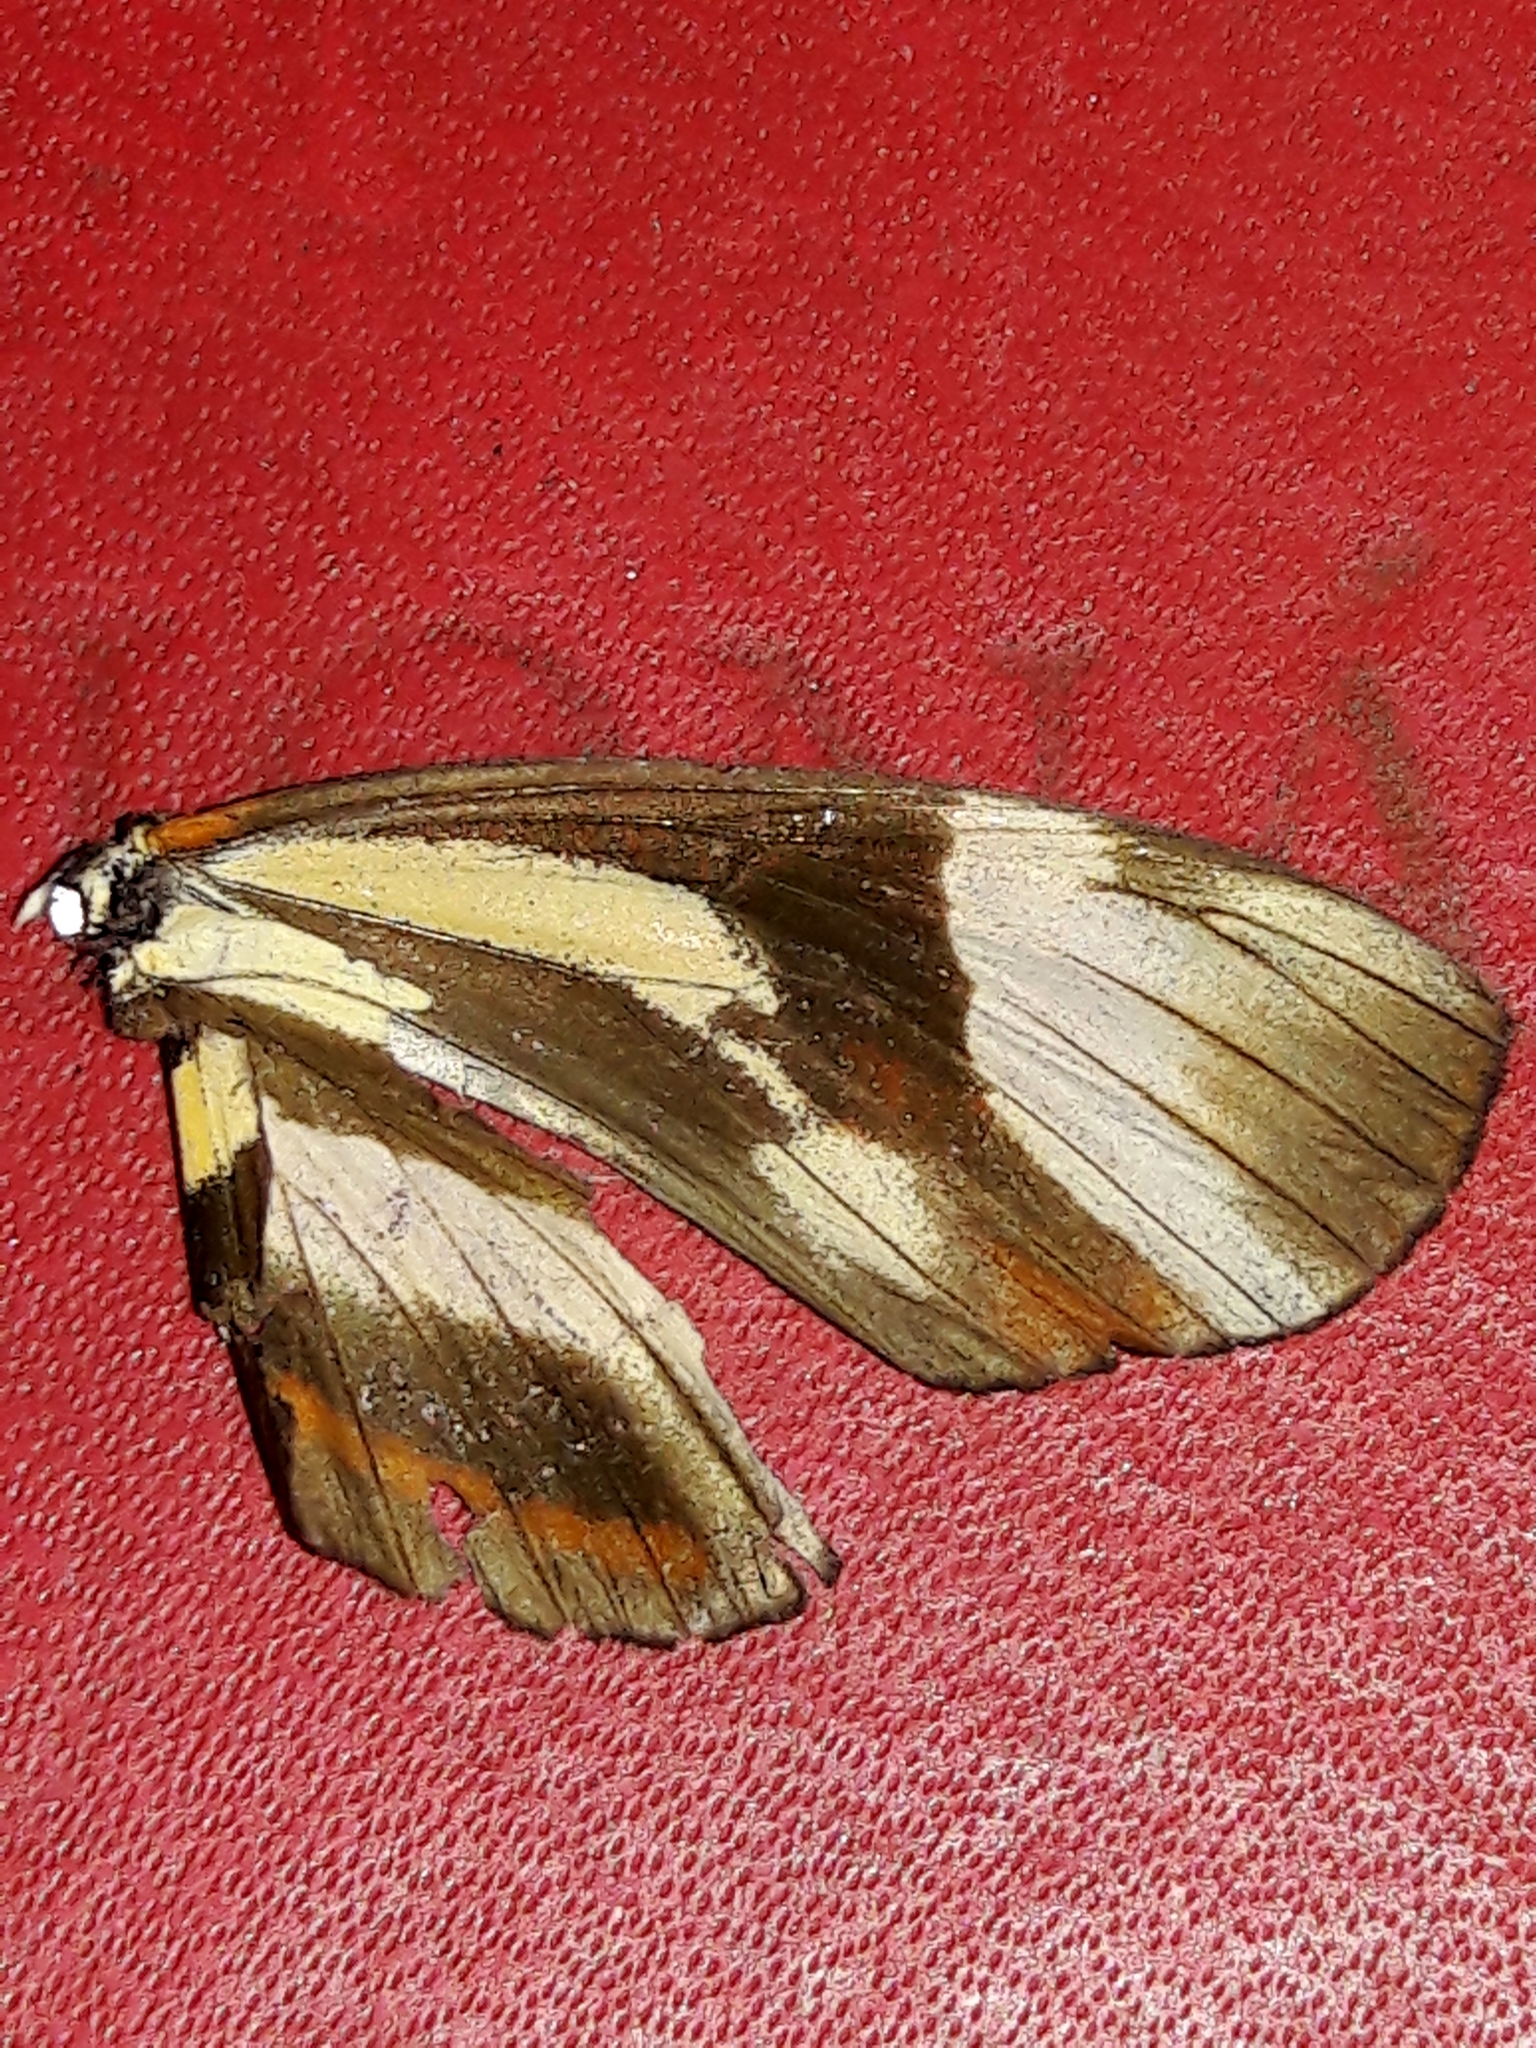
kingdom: Animalia
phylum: Arthropoda
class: Insecta
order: Lepidoptera
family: Nymphalidae
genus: Eresia
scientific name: Eresia lansdorfi
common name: Lansdorf's crescent
